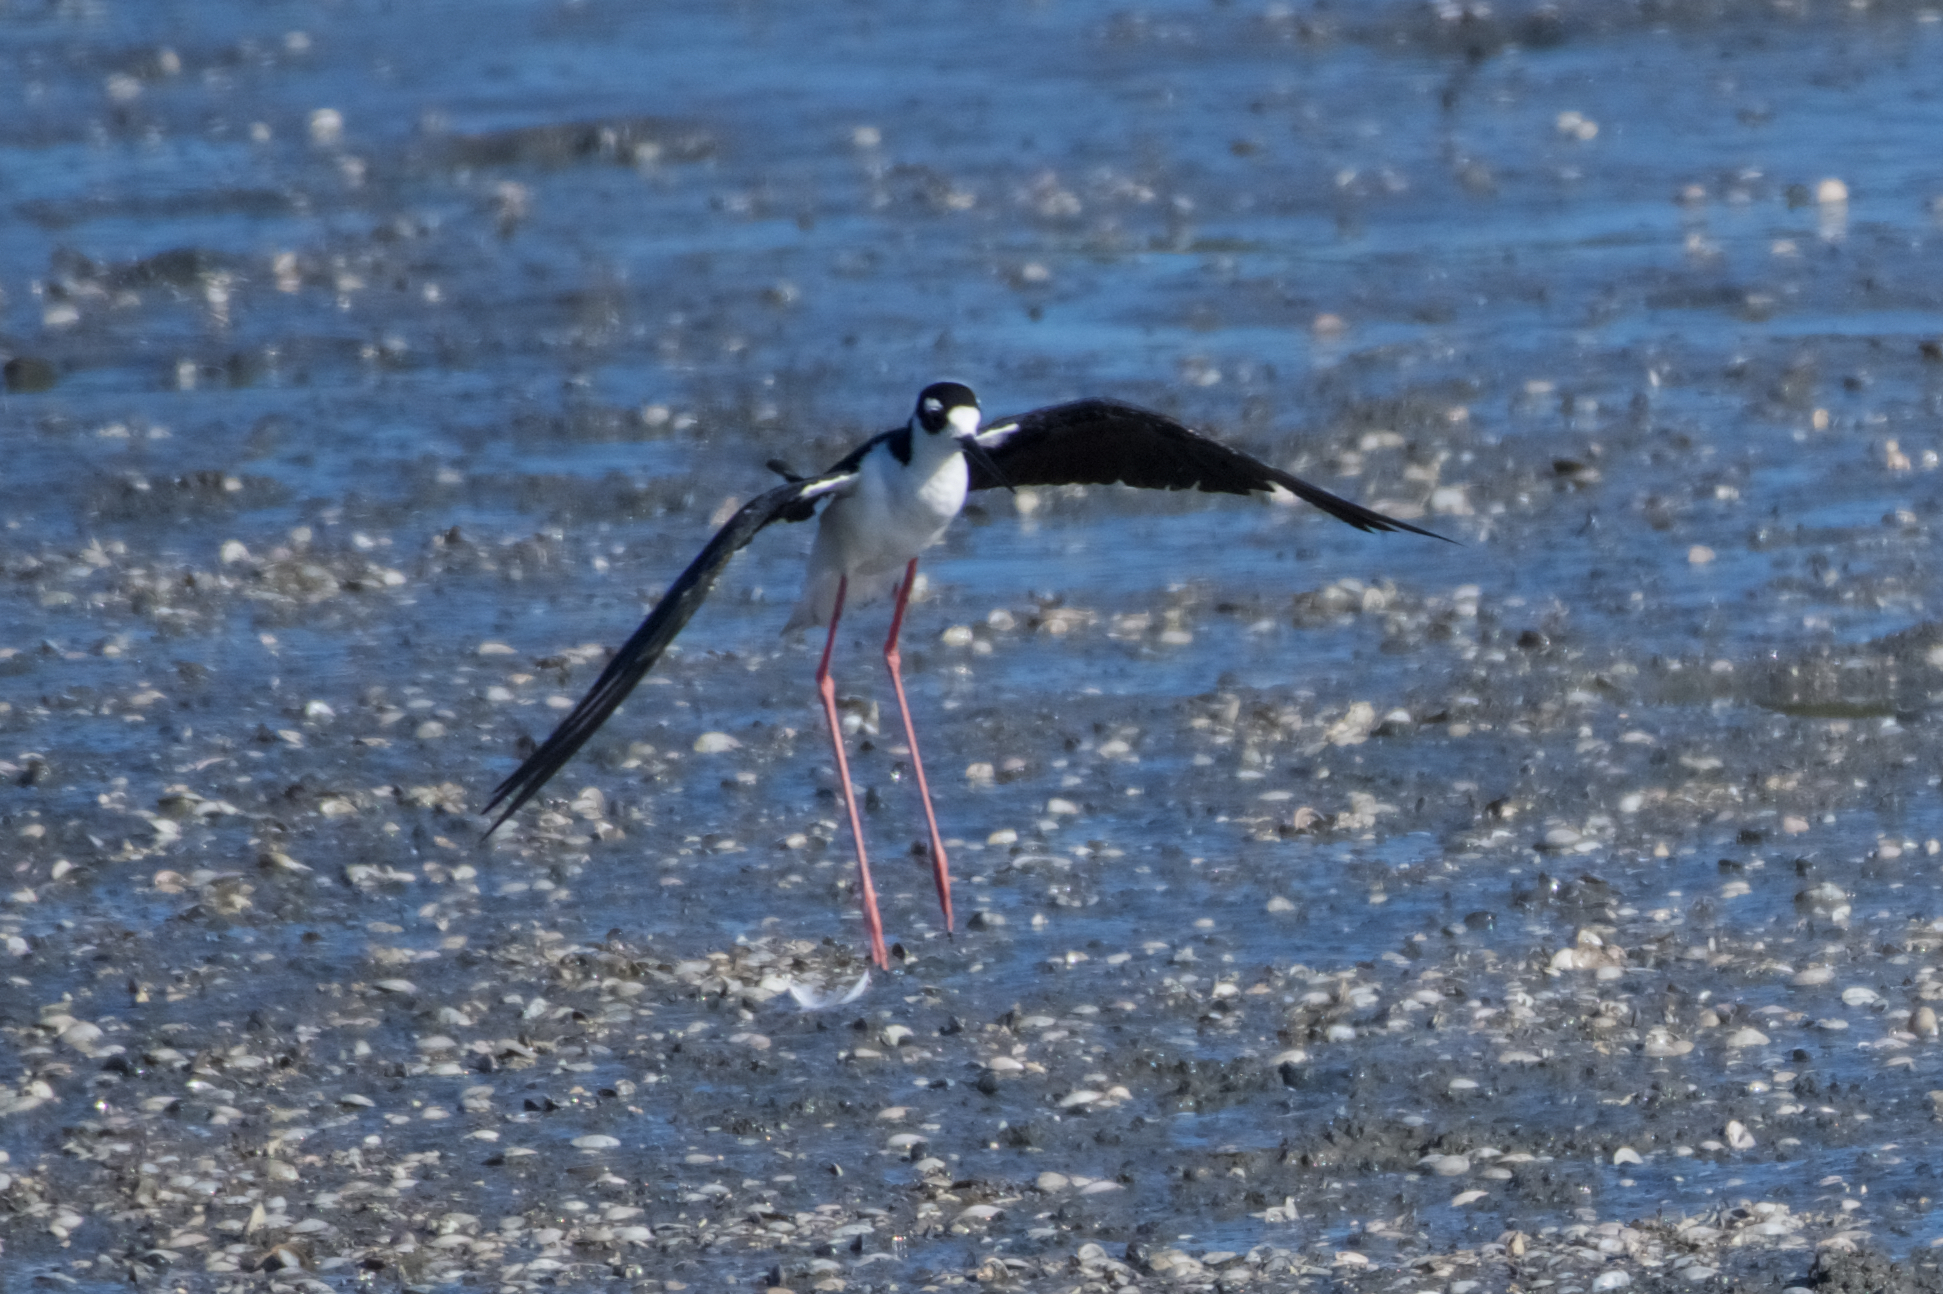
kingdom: Animalia
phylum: Chordata
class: Aves
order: Charadriiformes
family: Recurvirostridae
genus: Himantopus
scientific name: Himantopus mexicanus
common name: Black-necked stilt
